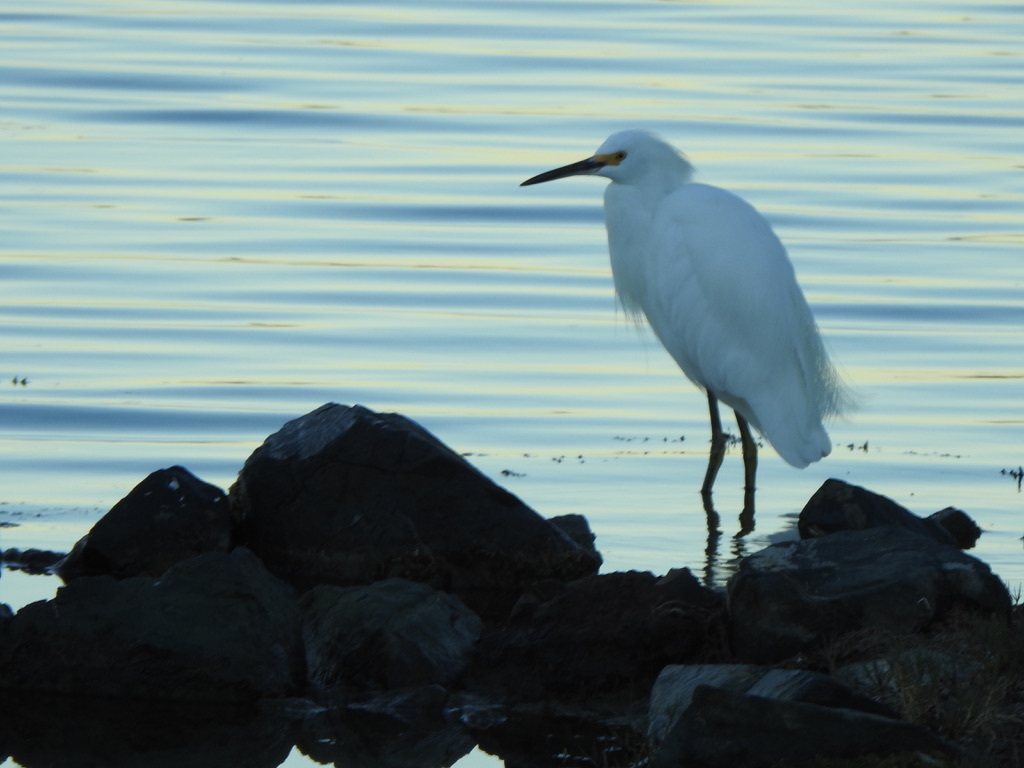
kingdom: Animalia
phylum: Chordata
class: Aves
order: Pelecaniformes
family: Ardeidae
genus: Egretta
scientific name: Egretta thula
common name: Snowy egret
